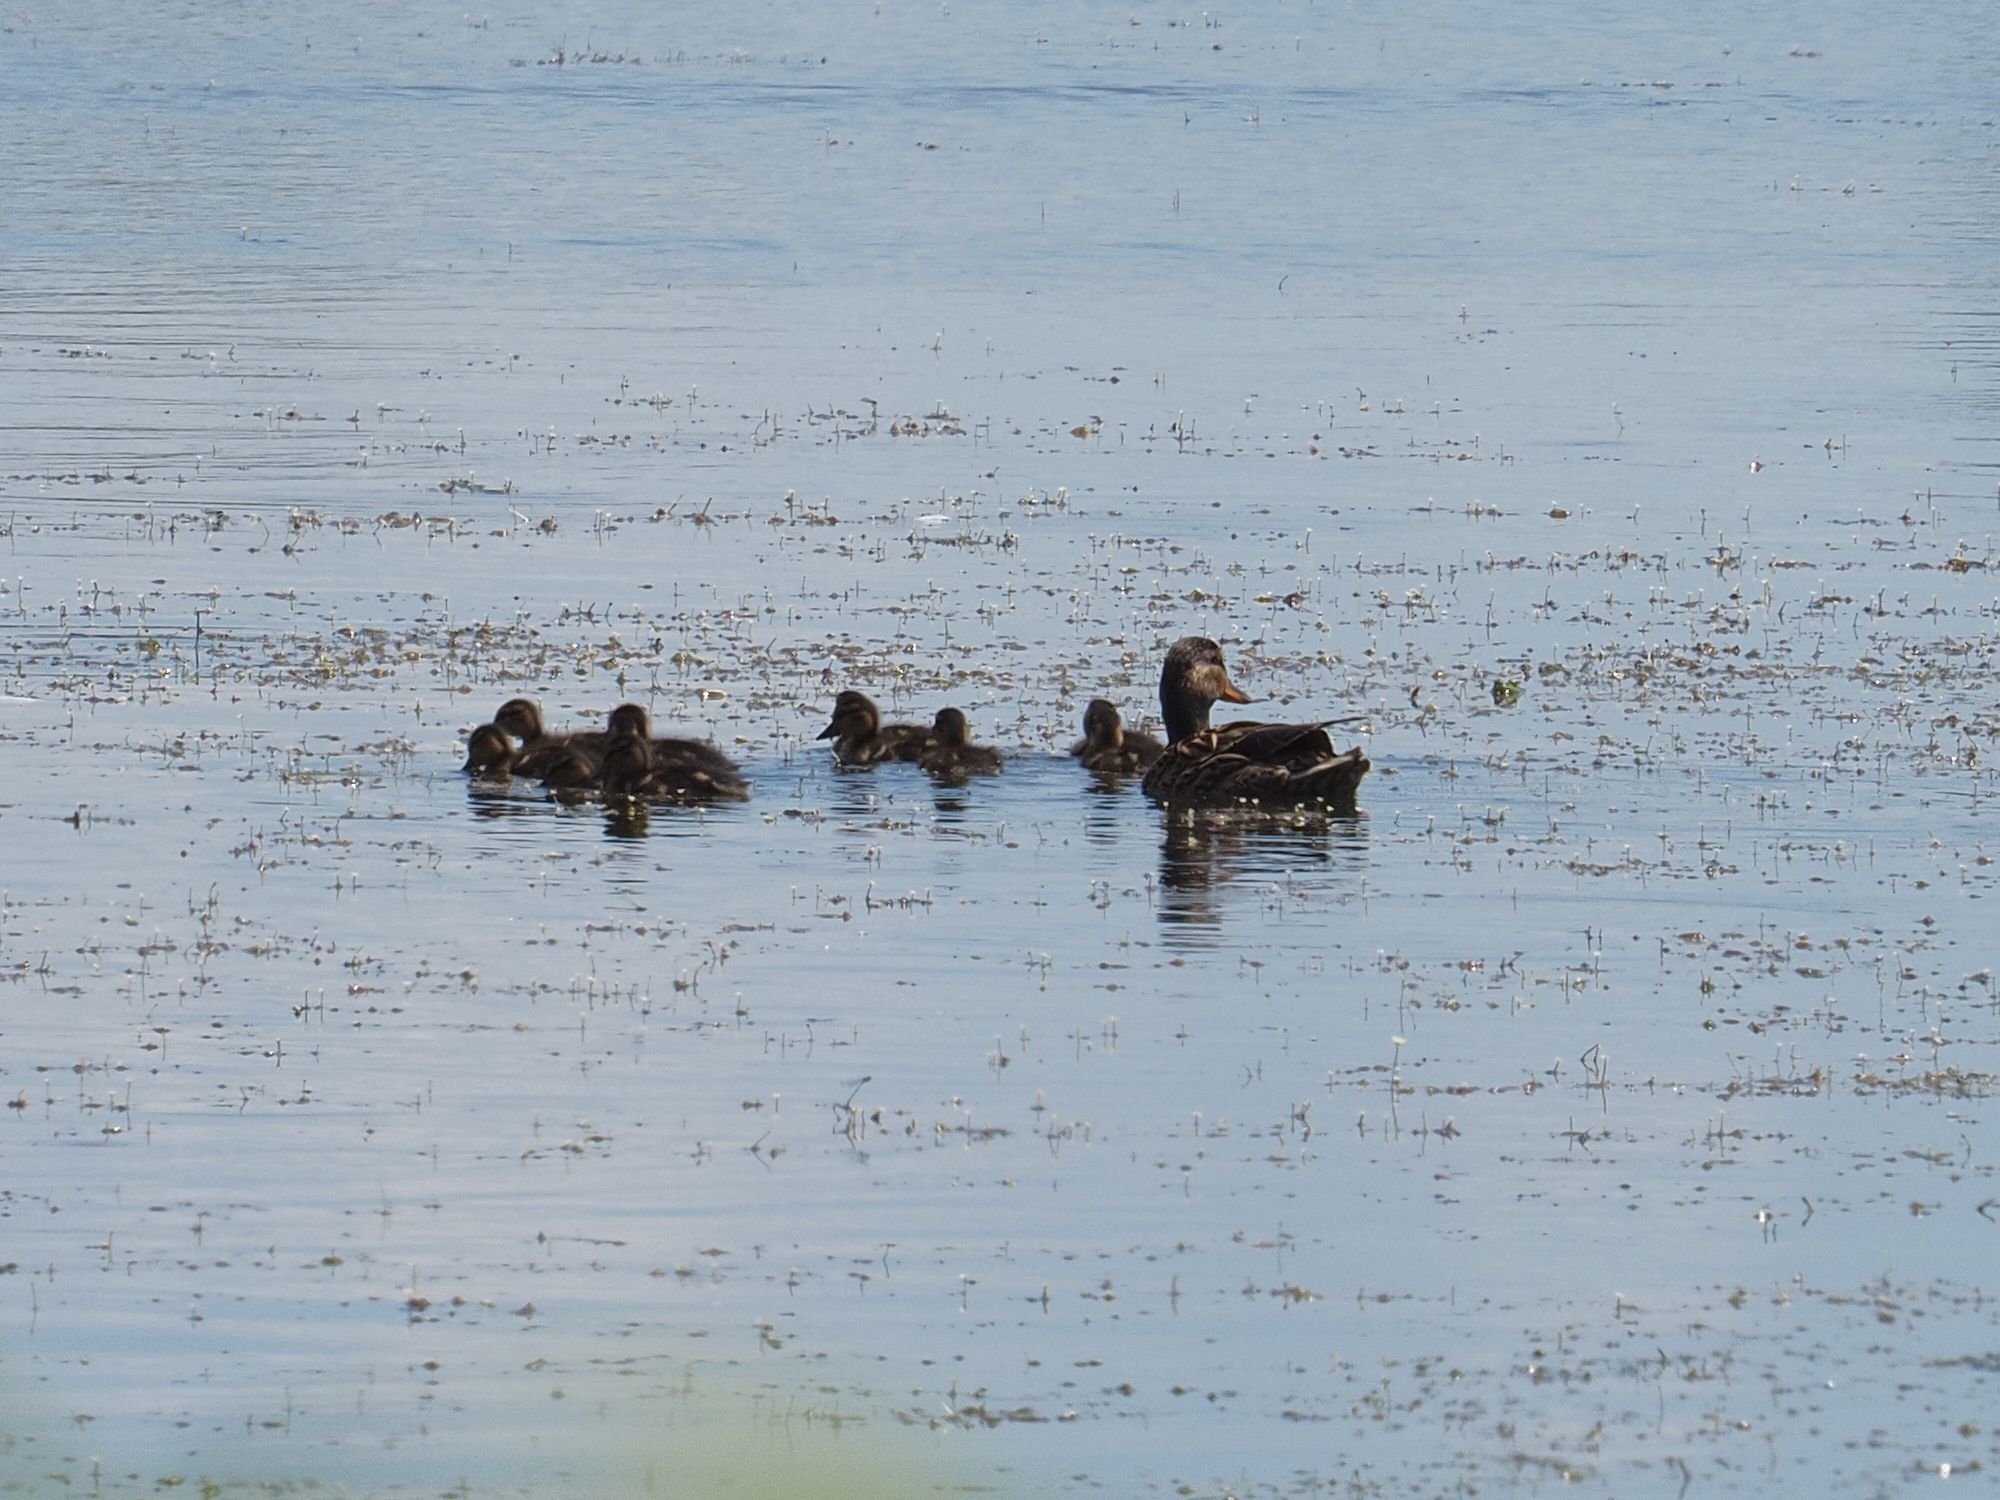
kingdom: Animalia
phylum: Chordata
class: Aves
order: Anseriformes
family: Anatidae
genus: Anas
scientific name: Anas platyrhynchos
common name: Mallard
